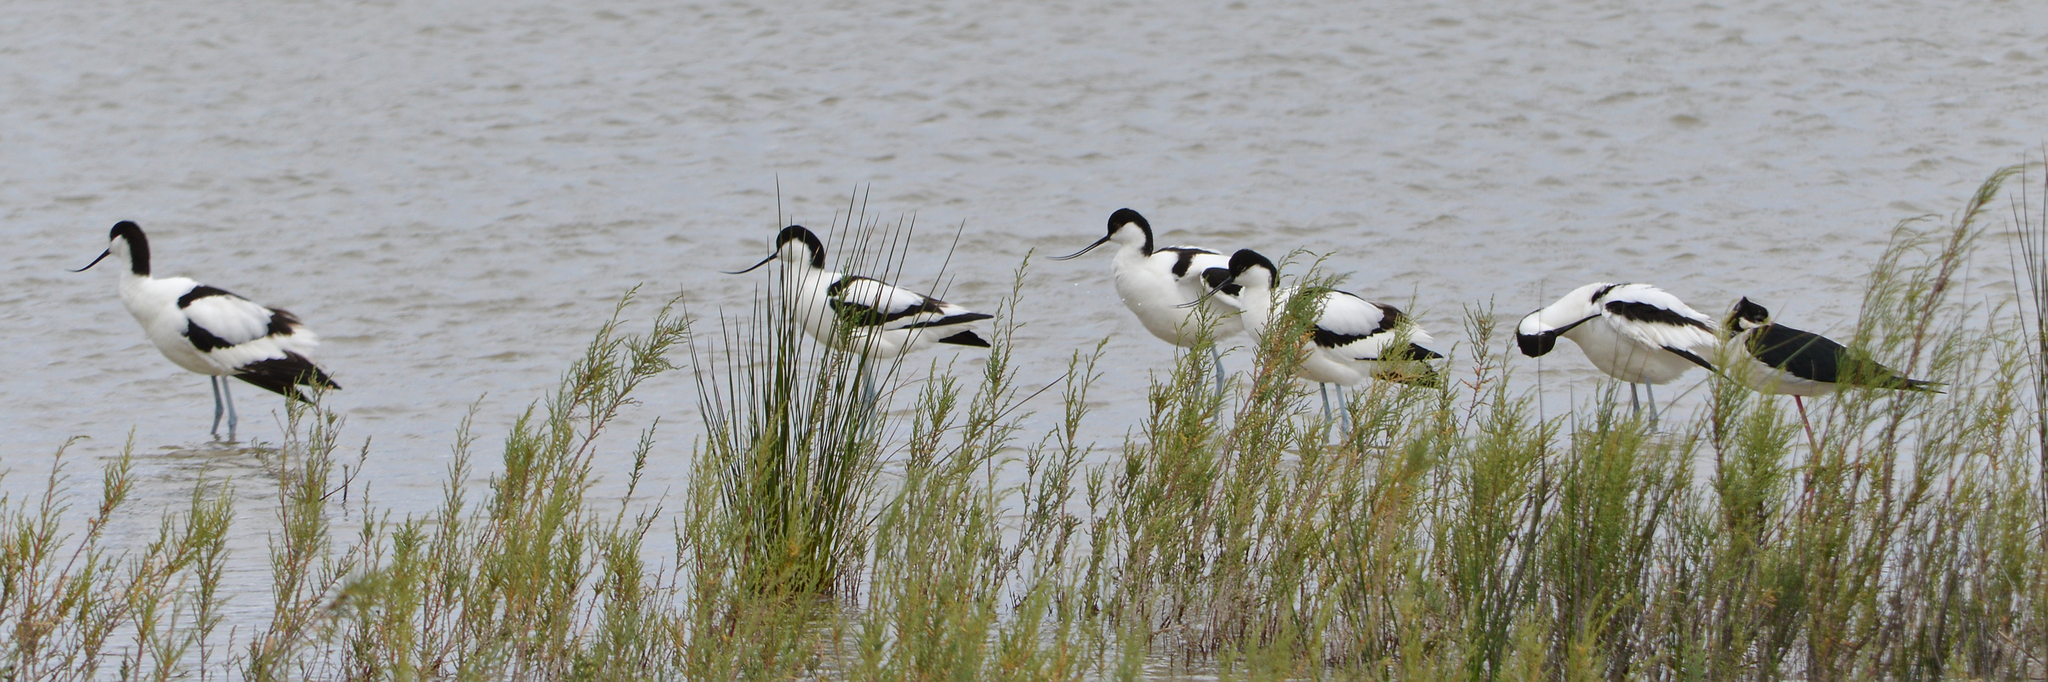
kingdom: Animalia
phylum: Chordata
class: Aves
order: Charadriiformes
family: Recurvirostridae
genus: Recurvirostra
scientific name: Recurvirostra avosetta
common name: Pied avocet
